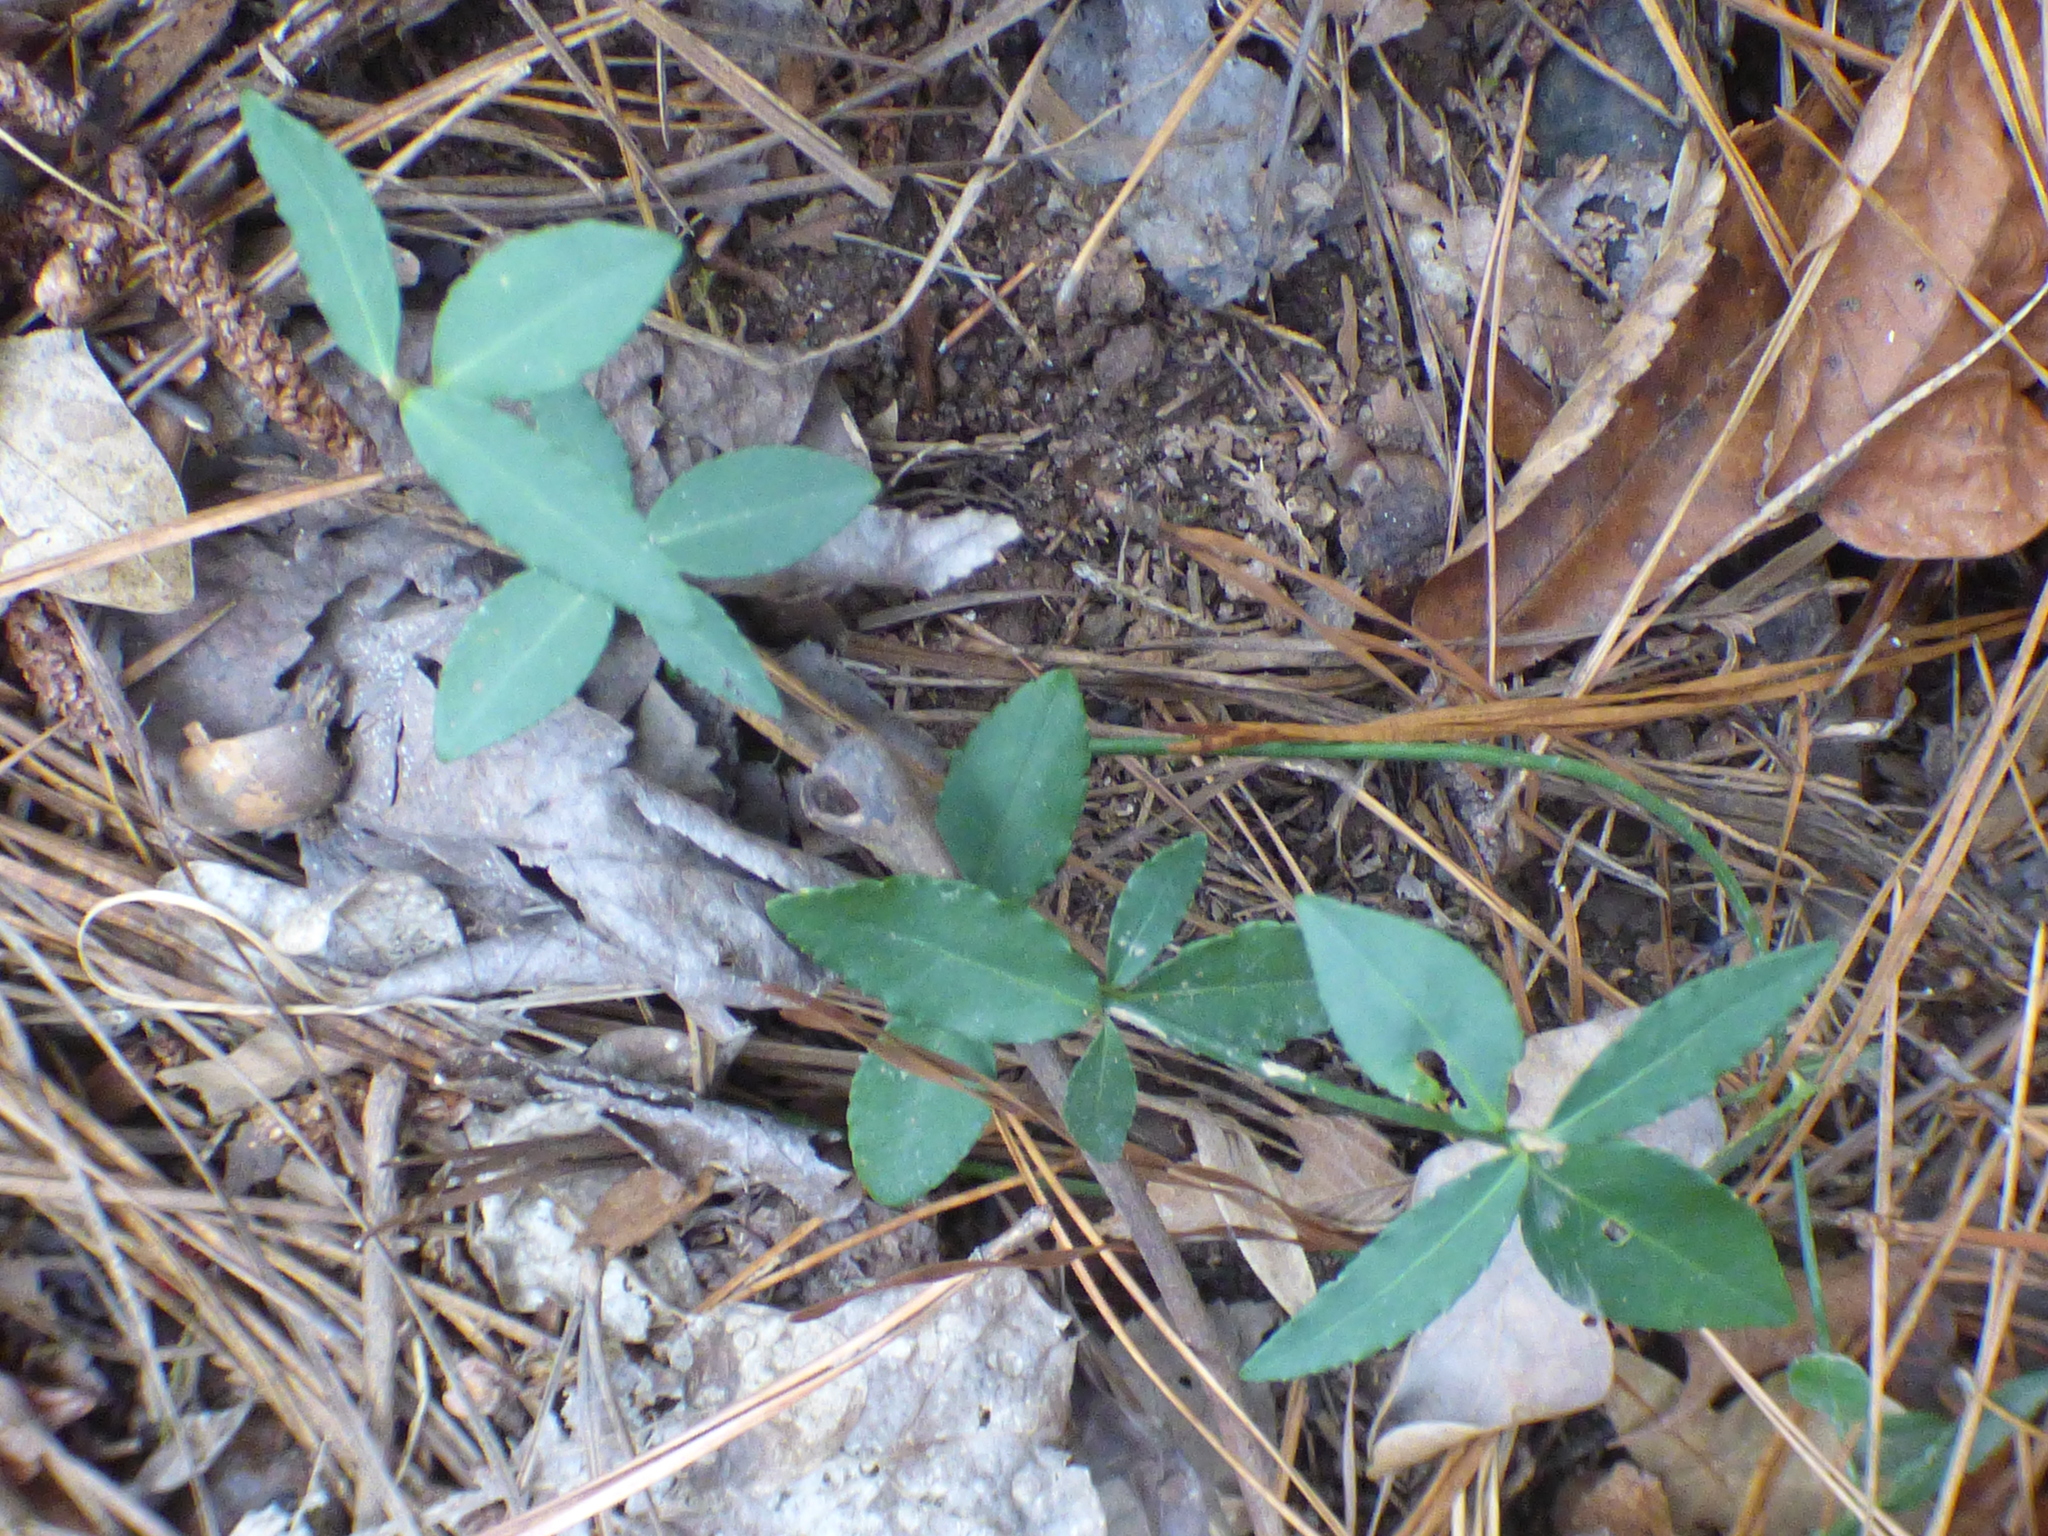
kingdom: Plantae
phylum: Tracheophyta
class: Magnoliopsida
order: Celastrales
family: Celastraceae
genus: Euonymus
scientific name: Euonymus americanus
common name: Bursting-heart
